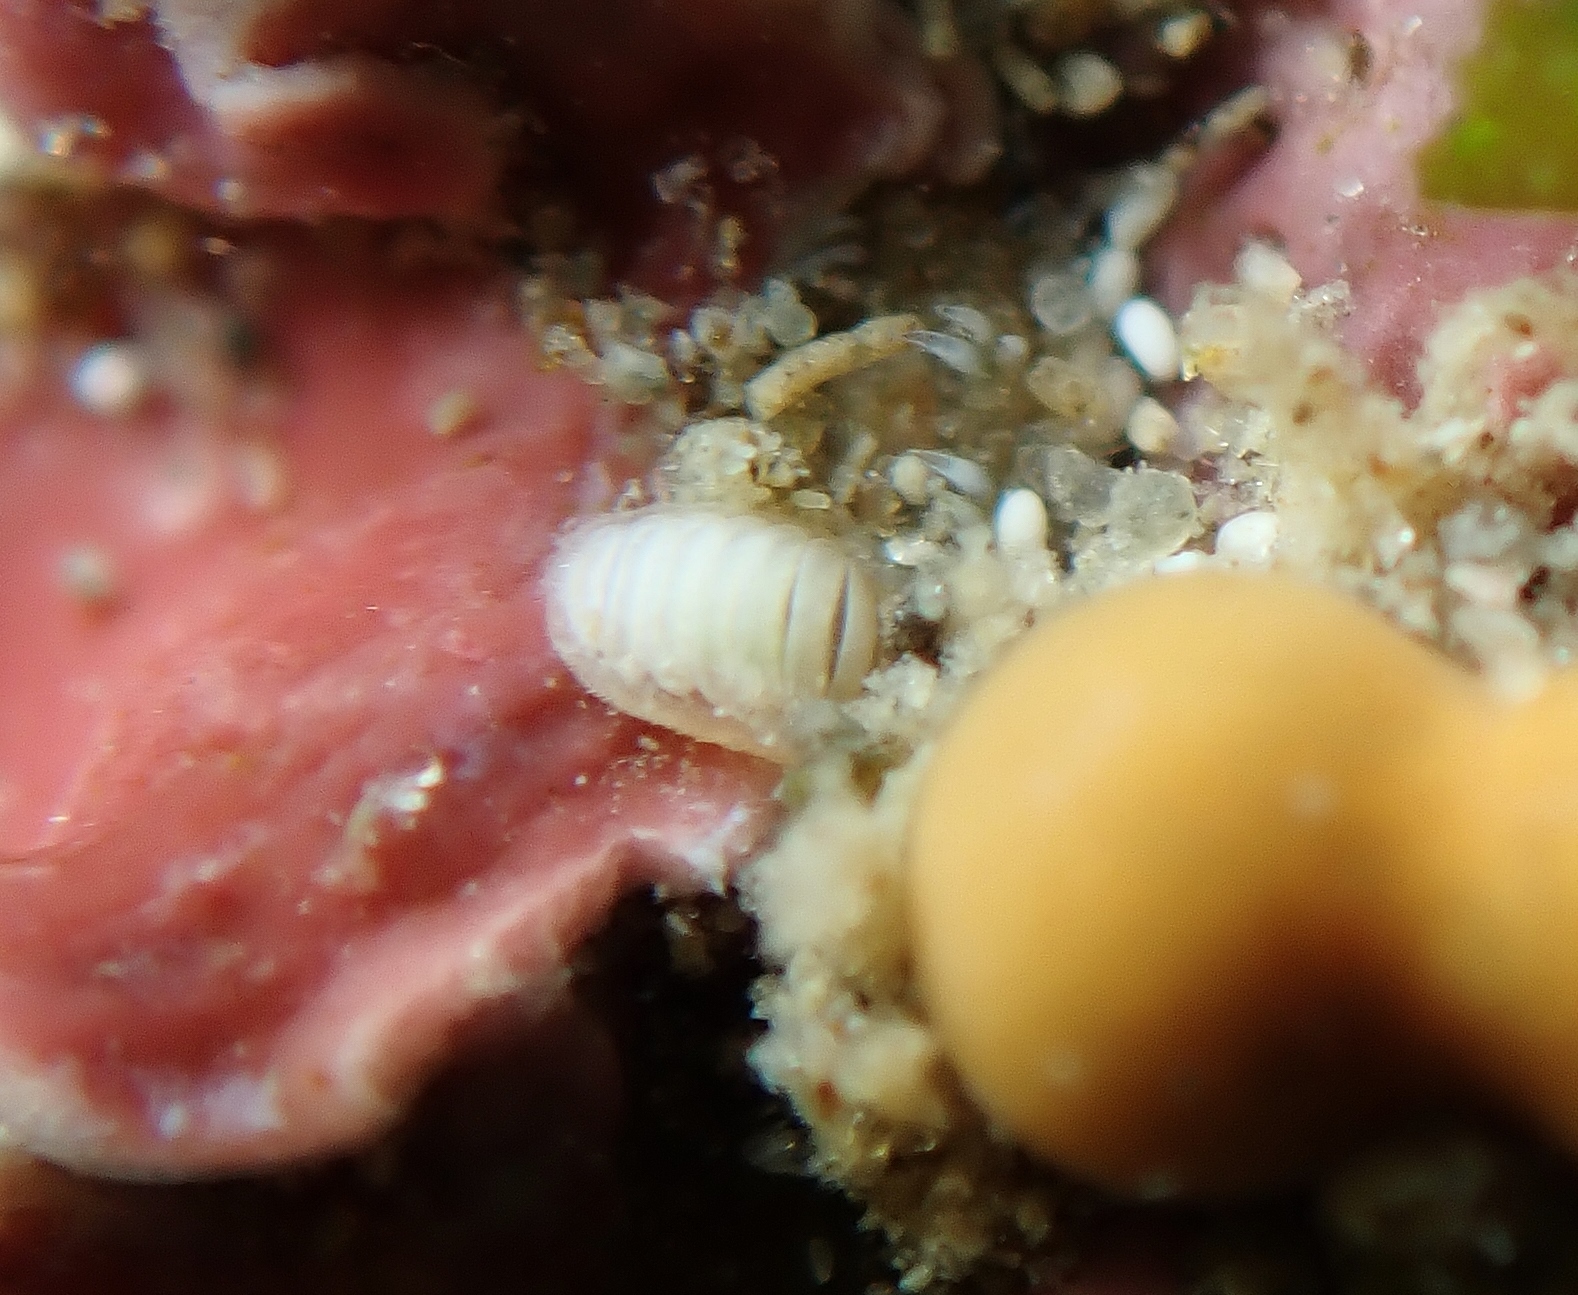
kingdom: Animalia
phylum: Mollusca
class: Polyplacophora
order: Chitonida
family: Ischnochitonidae
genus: Ischnochiton
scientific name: Ischnochiton
